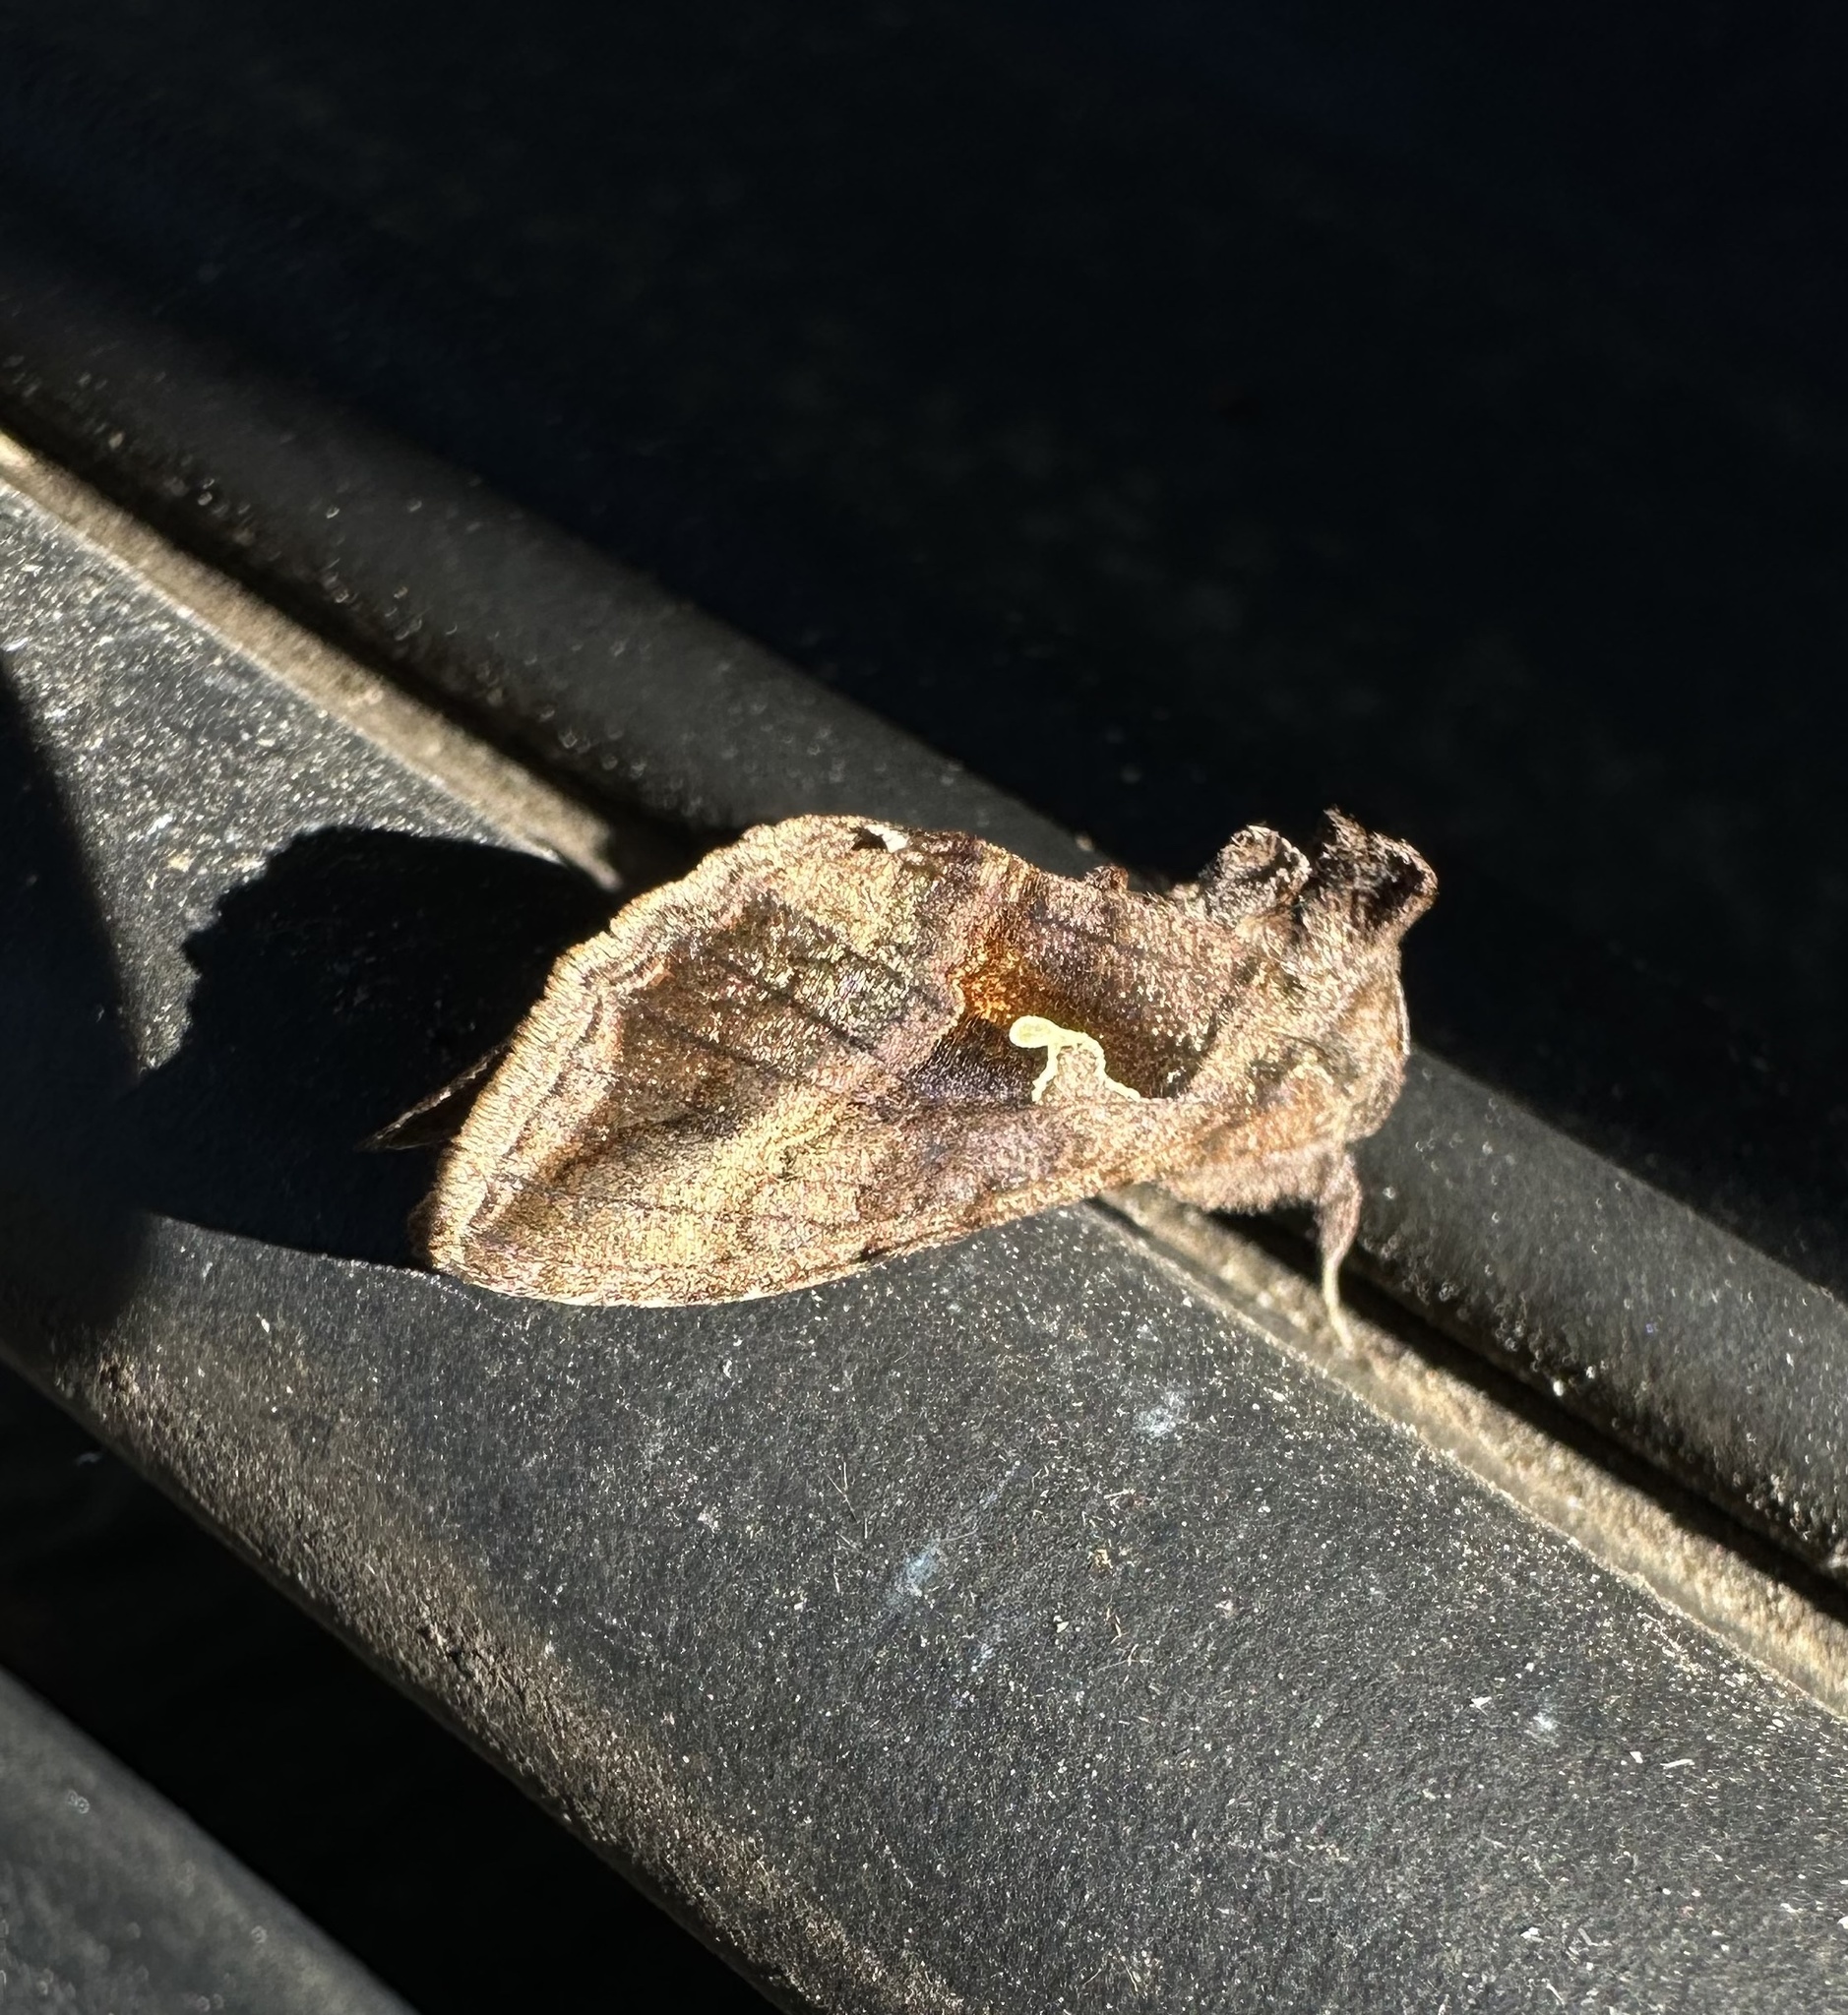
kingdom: Animalia
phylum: Arthropoda
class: Insecta
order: Lepidoptera
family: Noctuidae
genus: Autoplusia
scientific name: Autoplusia gammoides
